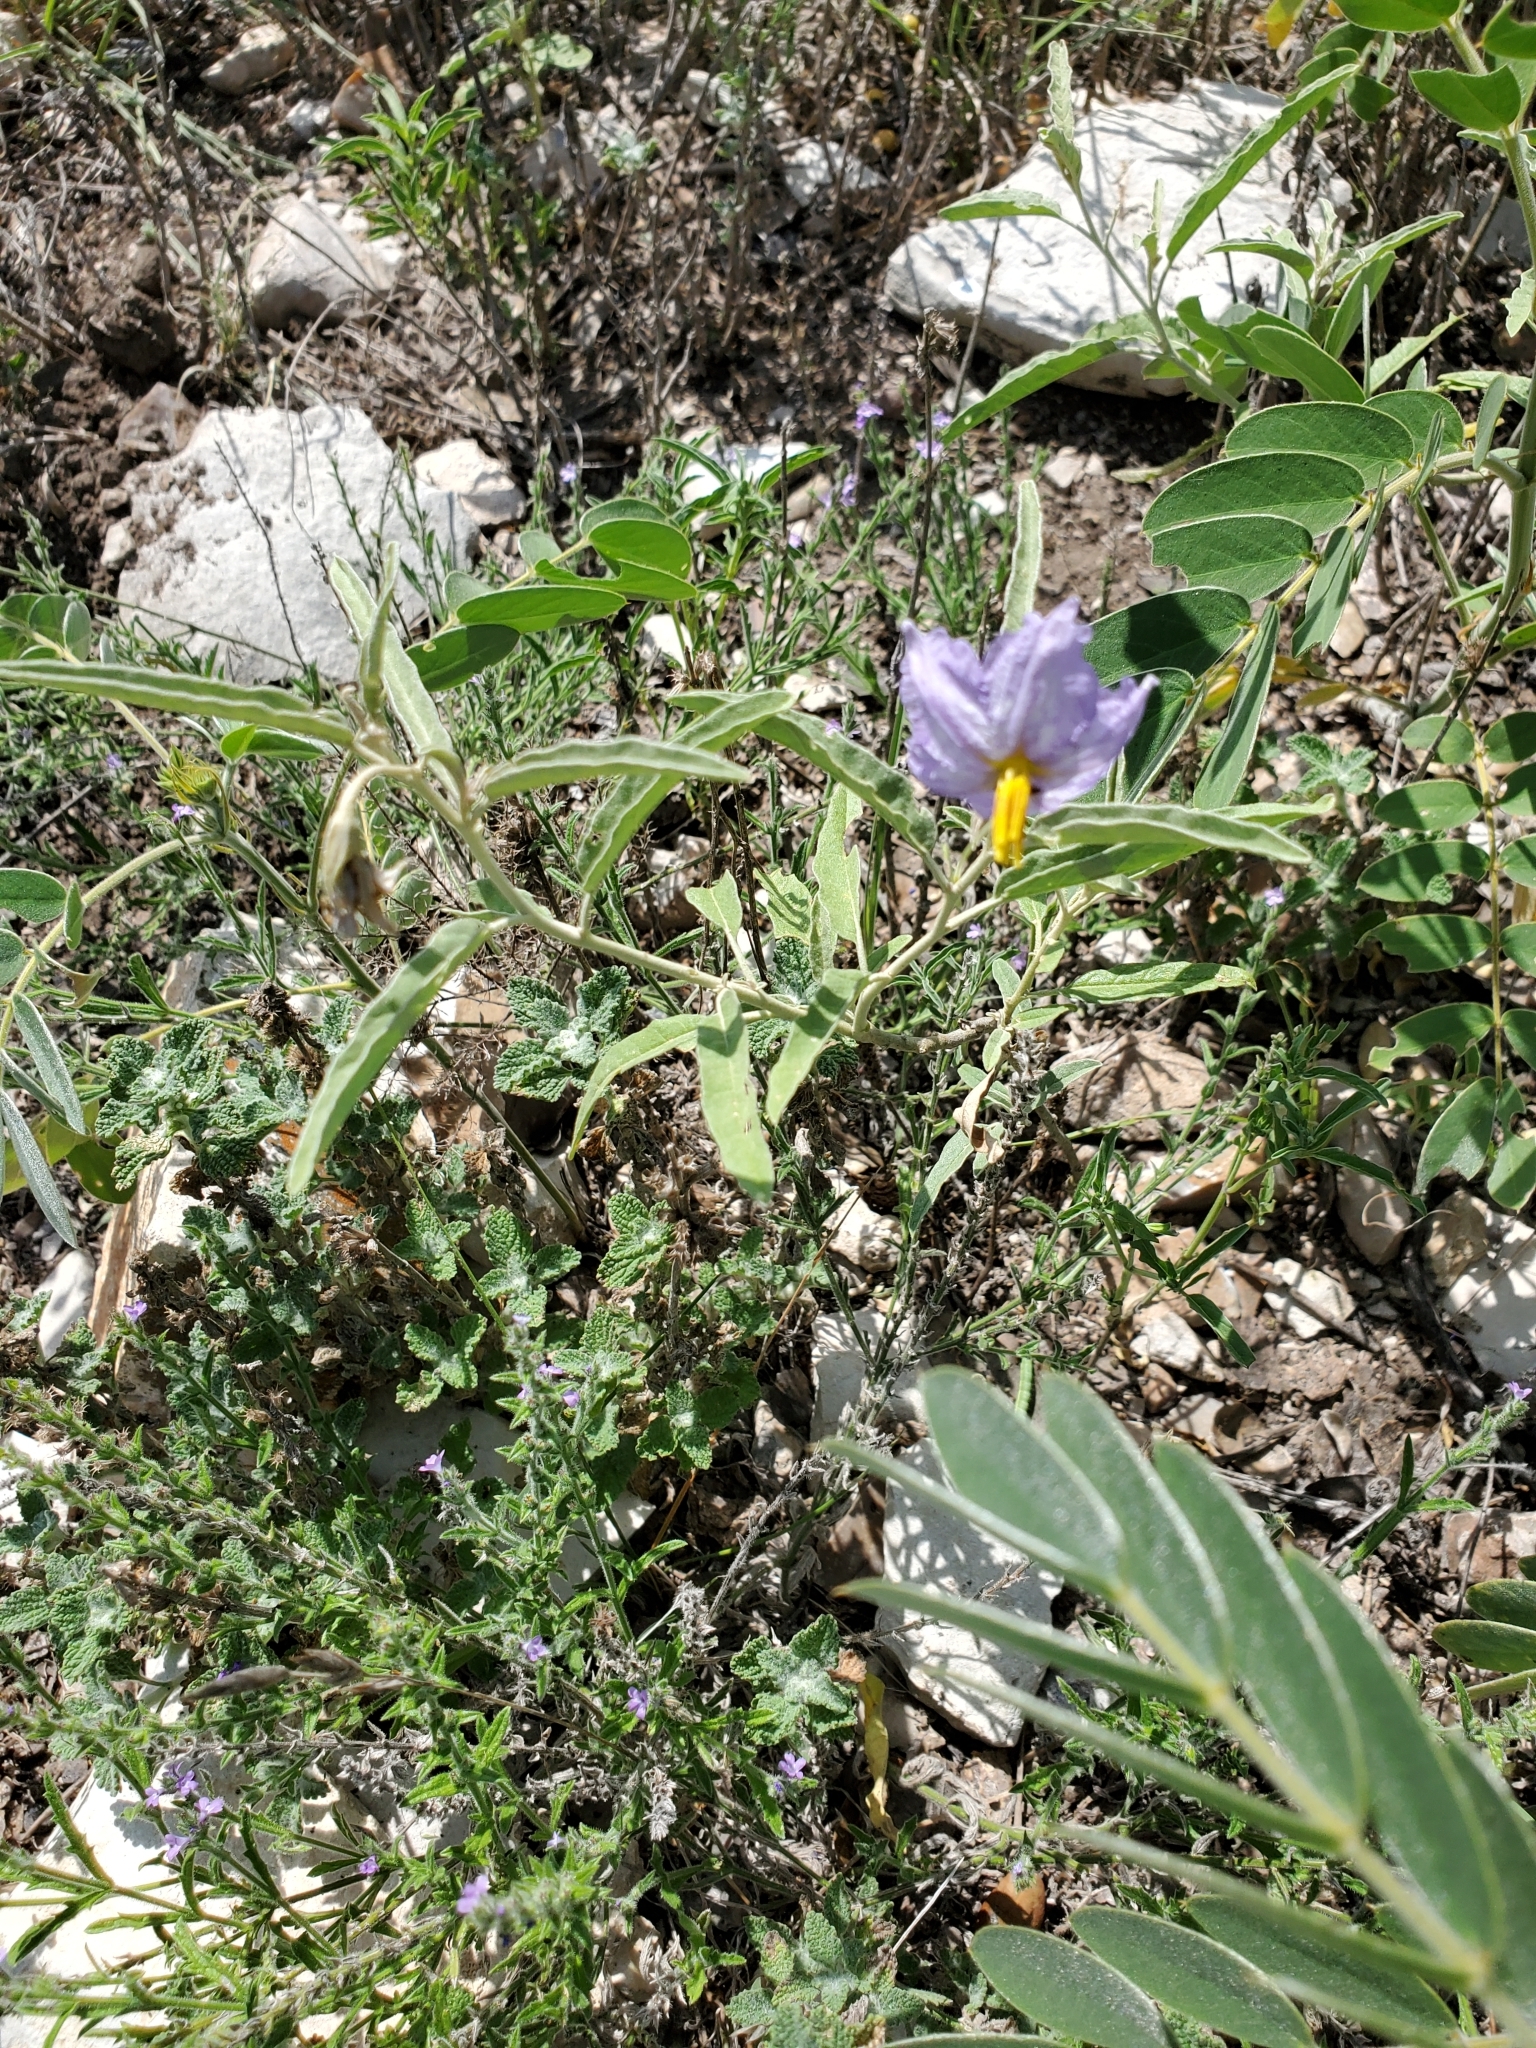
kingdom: Plantae
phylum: Tracheophyta
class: Magnoliopsida
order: Solanales
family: Solanaceae
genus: Solanum
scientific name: Solanum elaeagnifolium
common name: Silverleaf nightshade
